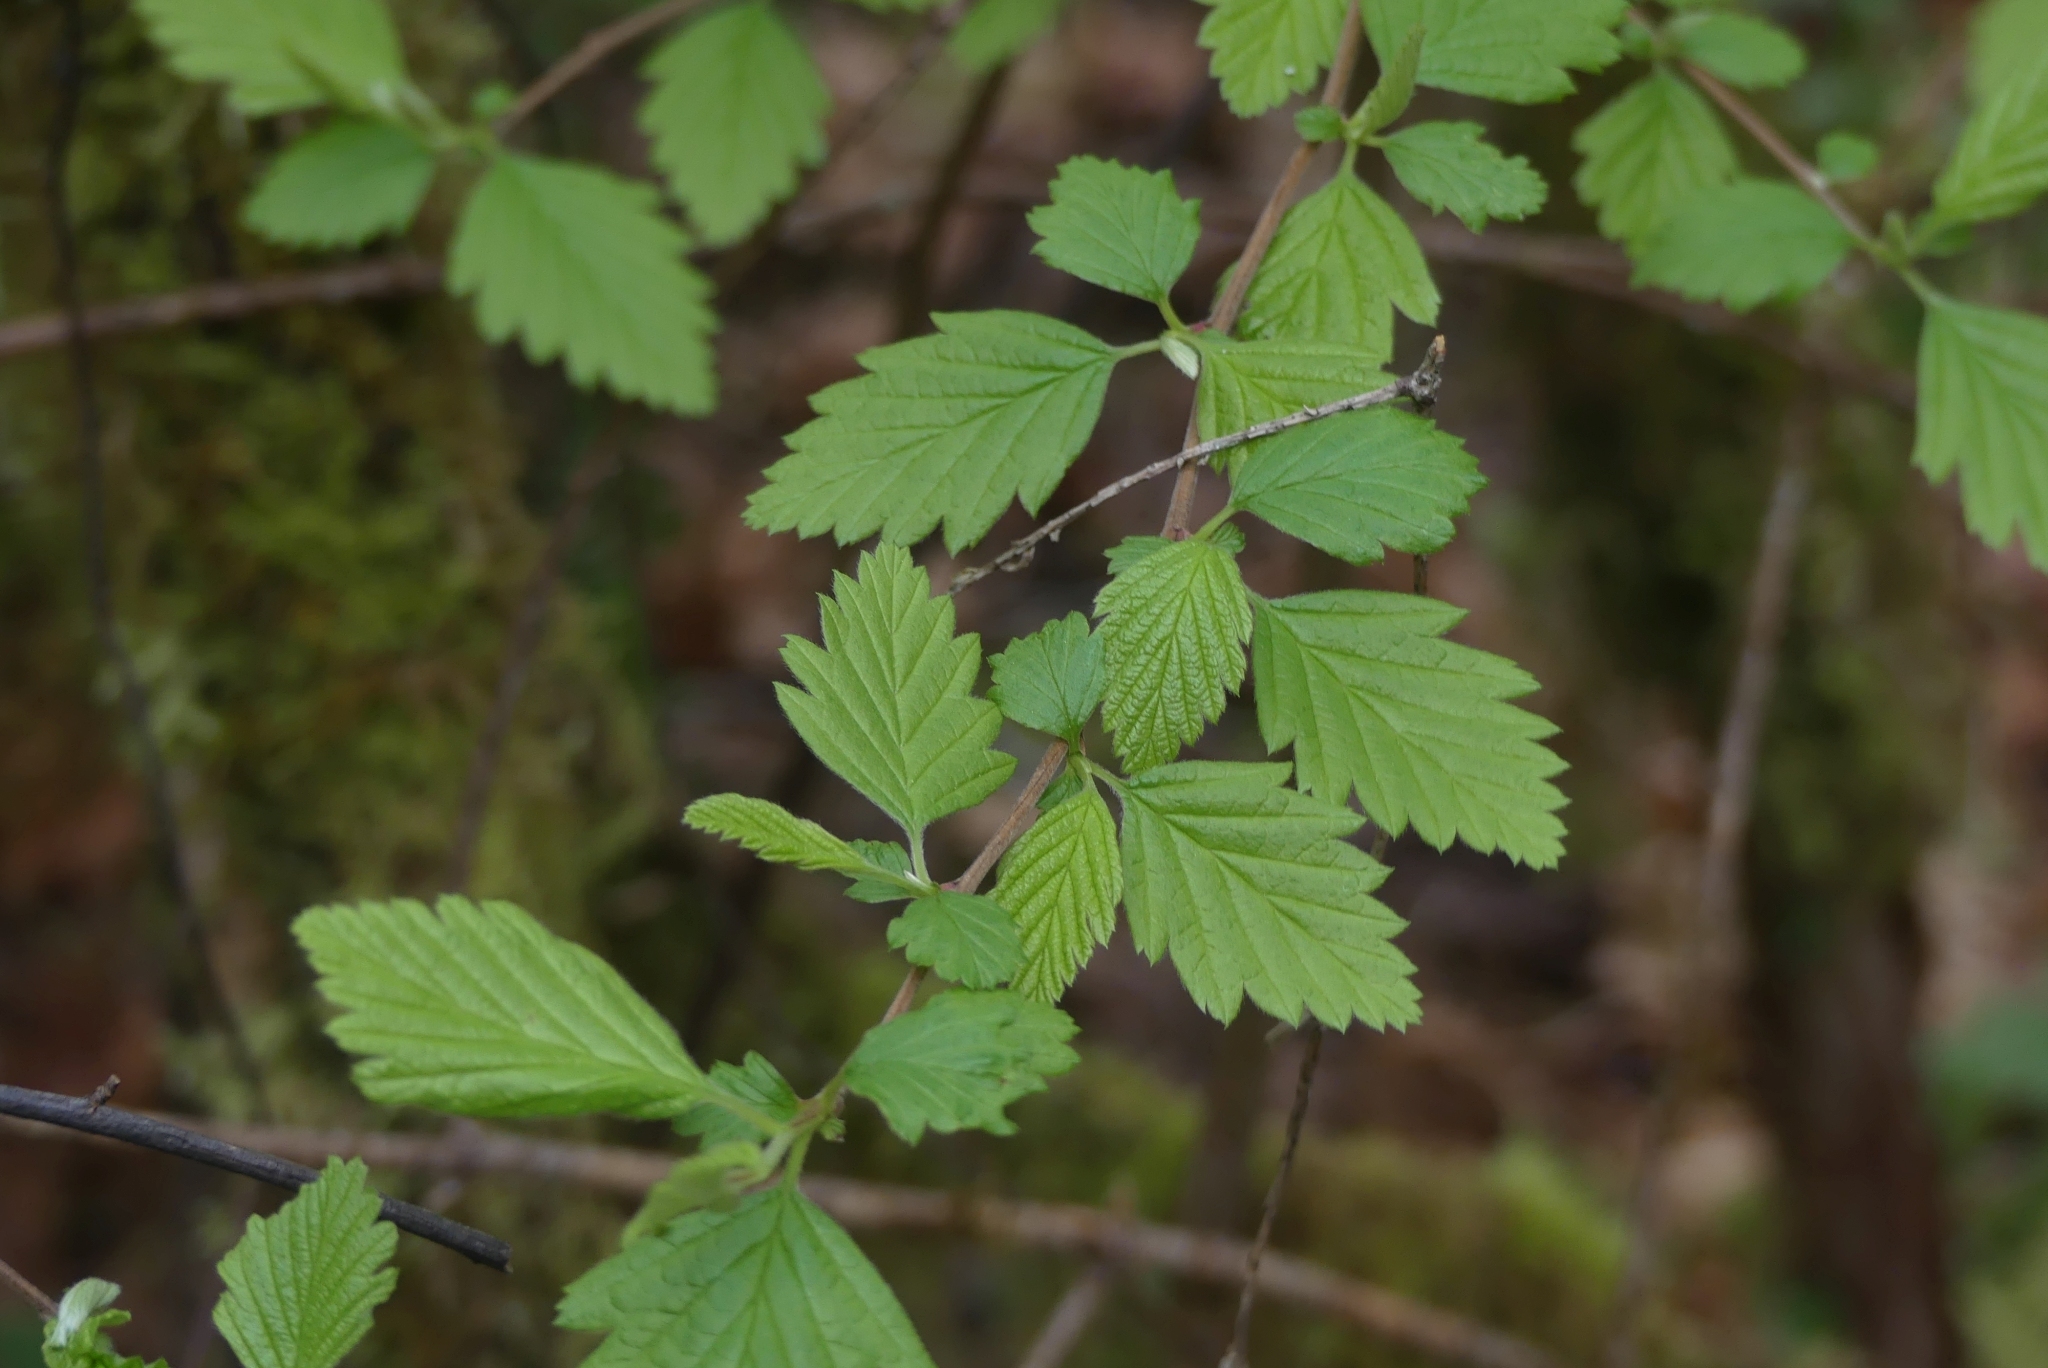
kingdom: Plantae
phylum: Tracheophyta
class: Magnoliopsida
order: Rosales
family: Rosaceae
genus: Holodiscus
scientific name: Holodiscus discolor
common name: Oceanspray
